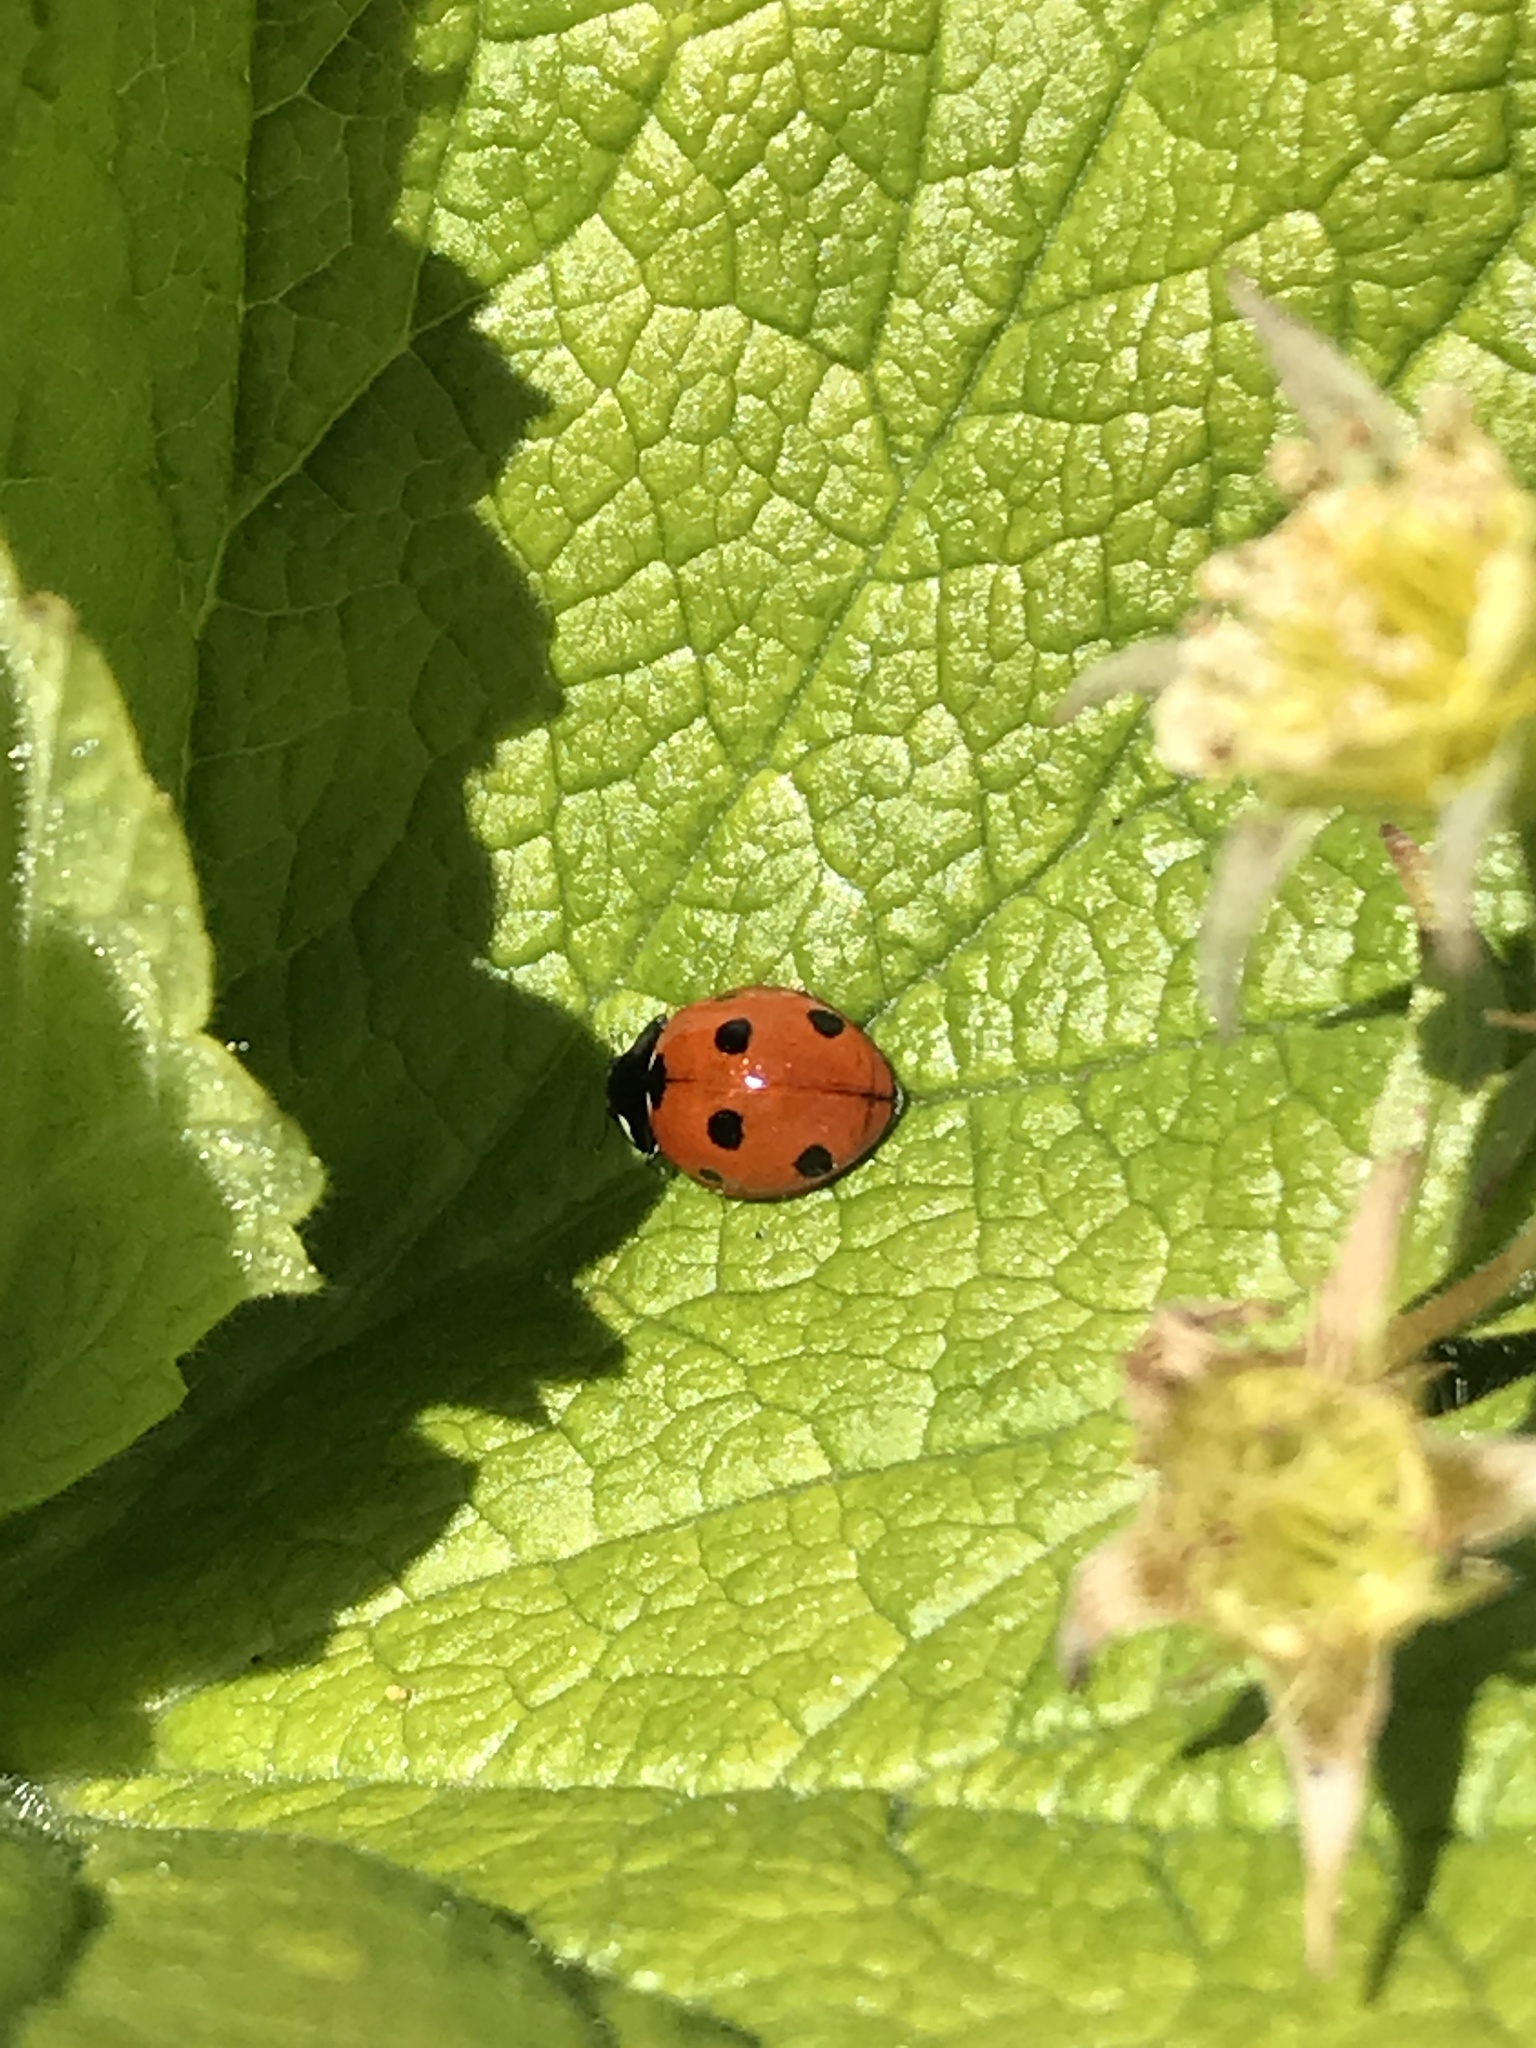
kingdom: Animalia
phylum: Arthropoda
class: Insecta
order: Coleoptera
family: Coccinellidae
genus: Coccinella
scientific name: Coccinella septempunctata
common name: Sevenspotted lady beetle
